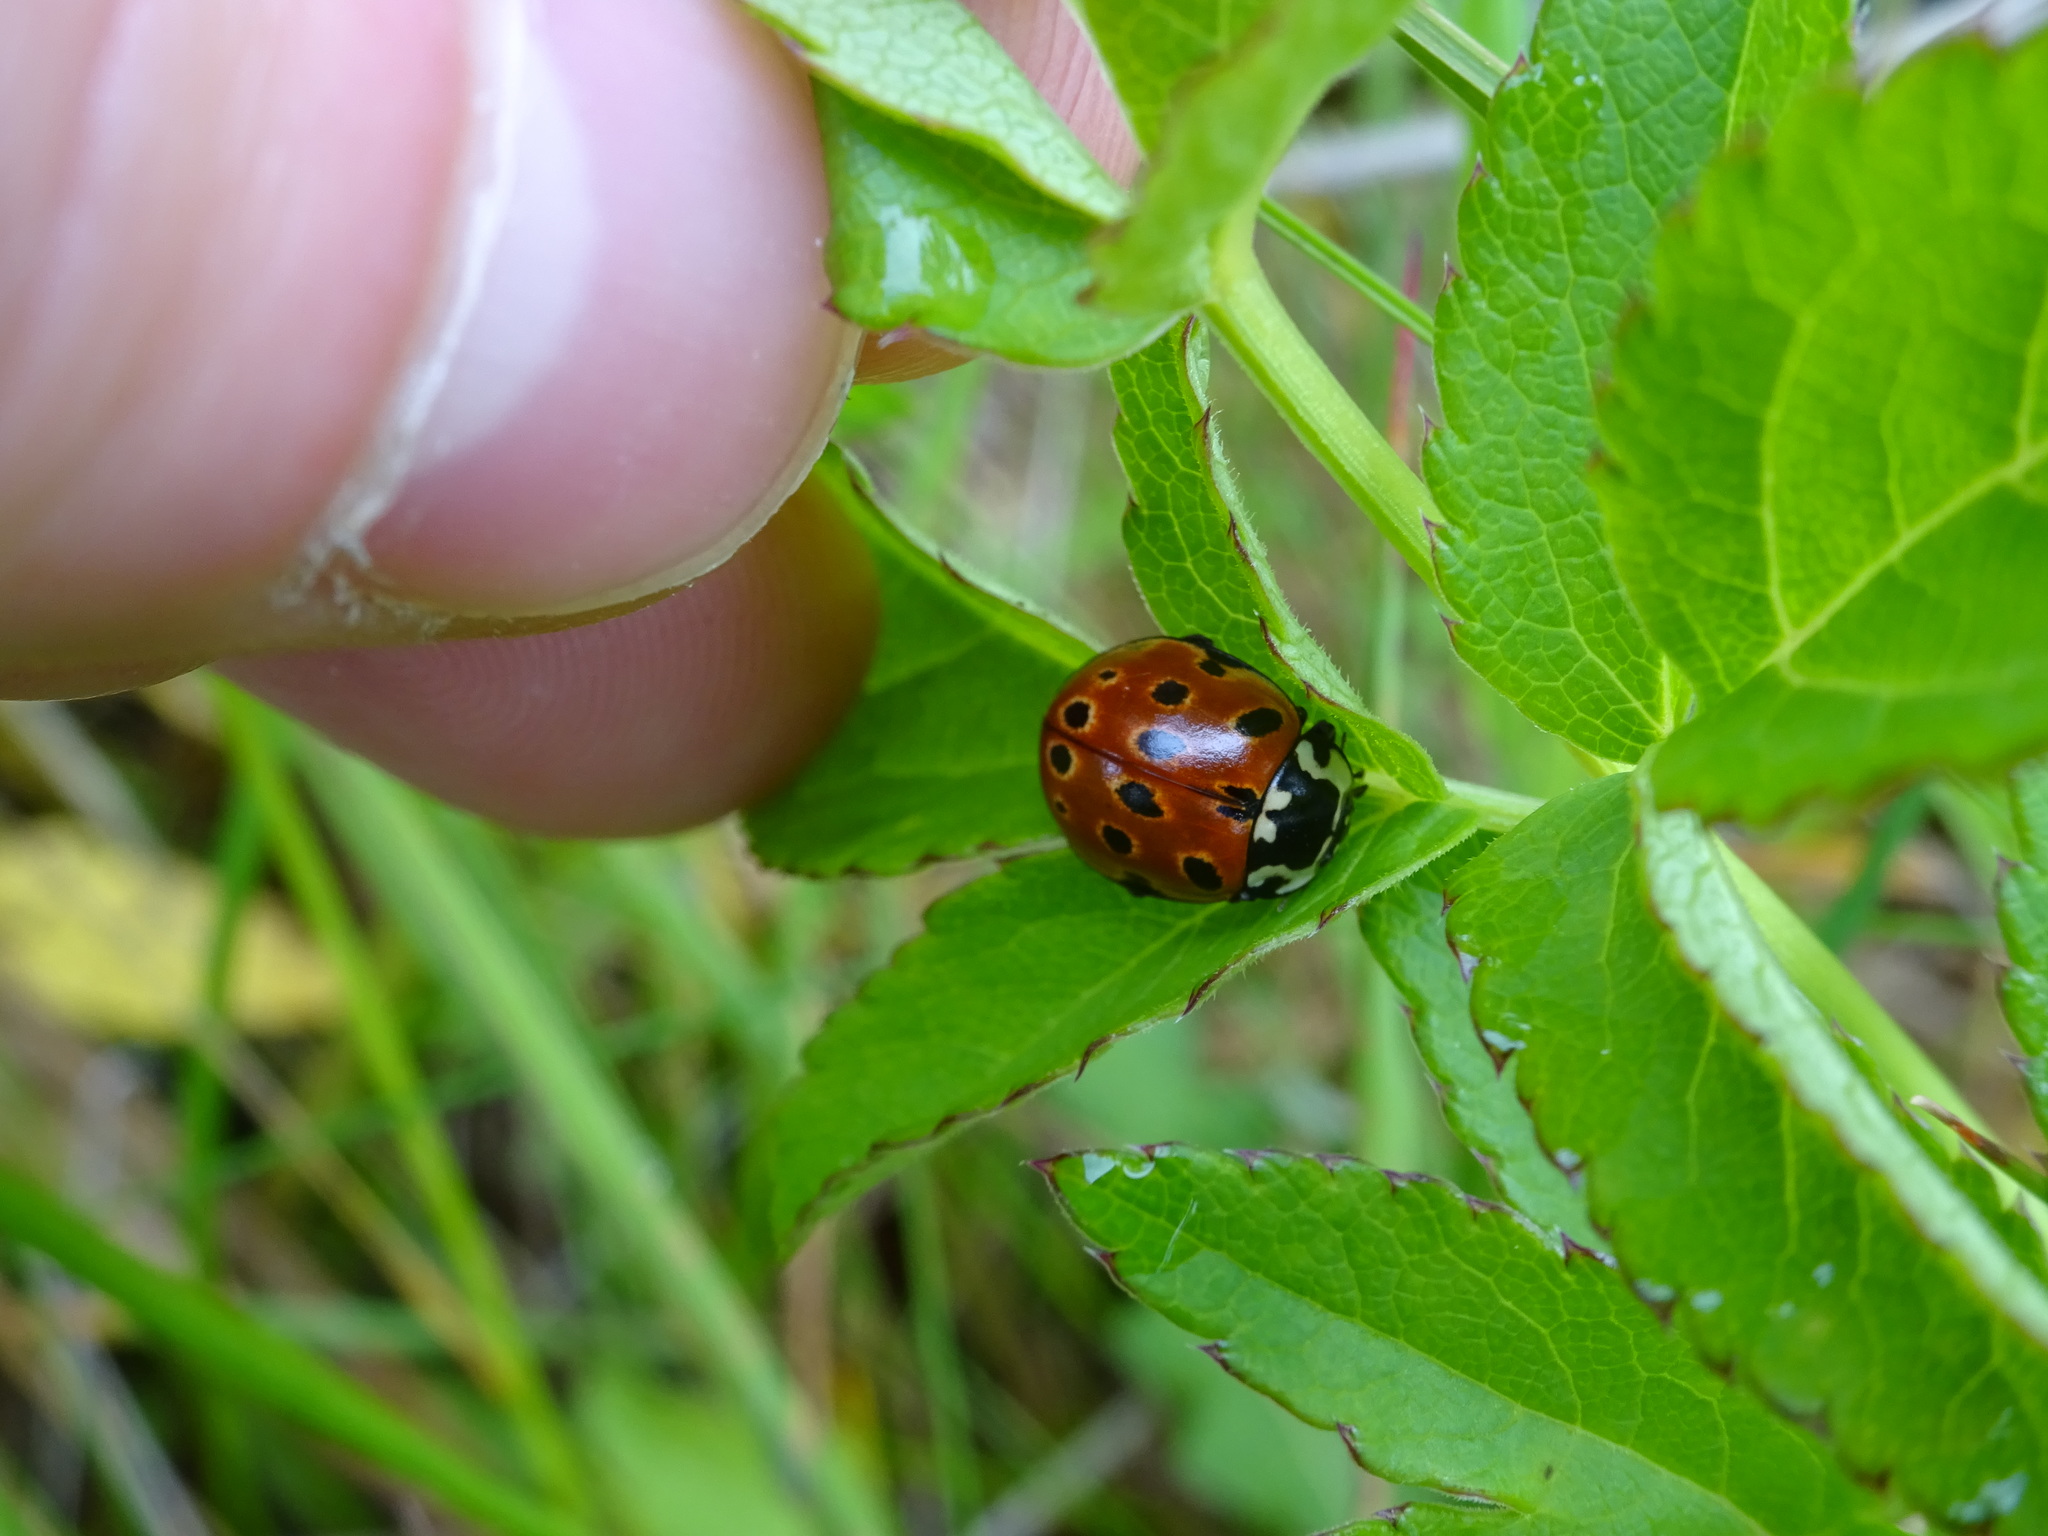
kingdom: Animalia
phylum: Arthropoda
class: Insecta
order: Coleoptera
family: Coccinellidae
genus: Anatis
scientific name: Anatis ocellata
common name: Eyed ladybird
